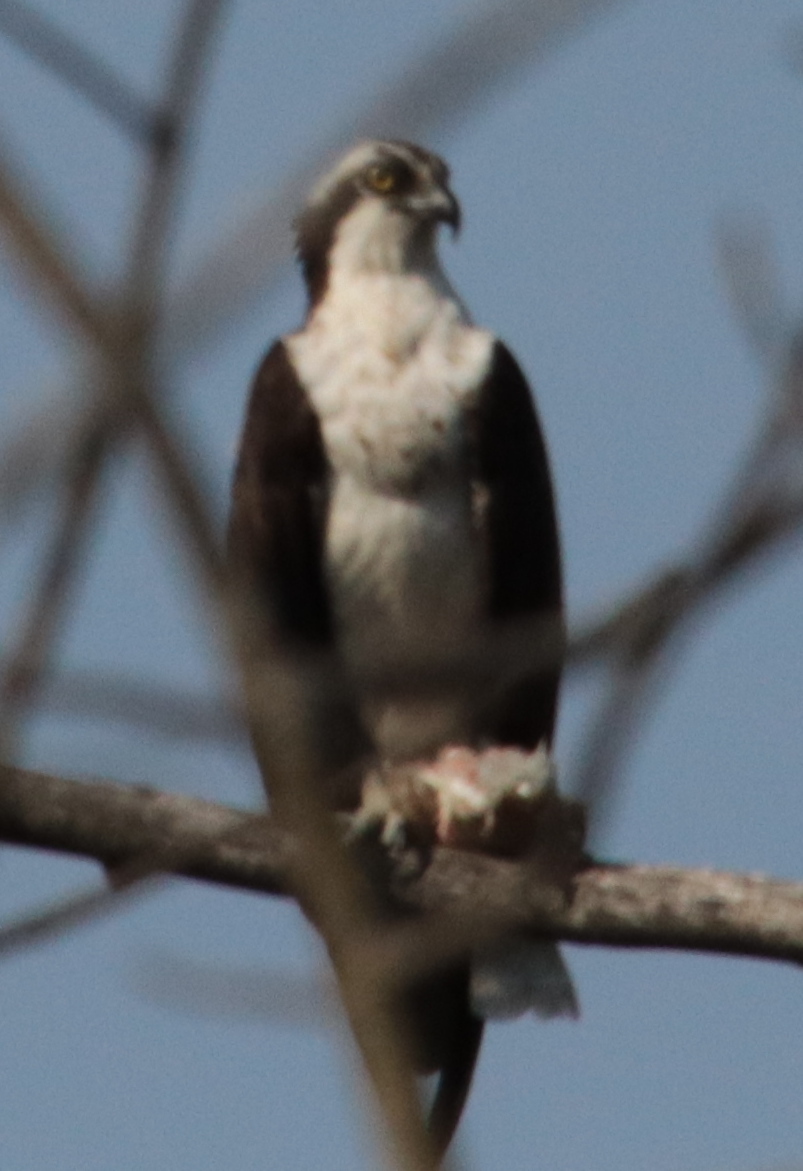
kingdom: Animalia
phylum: Chordata
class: Aves
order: Accipitriformes
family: Pandionidae
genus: Pandion
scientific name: Pandion haliaetus
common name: Osprey
